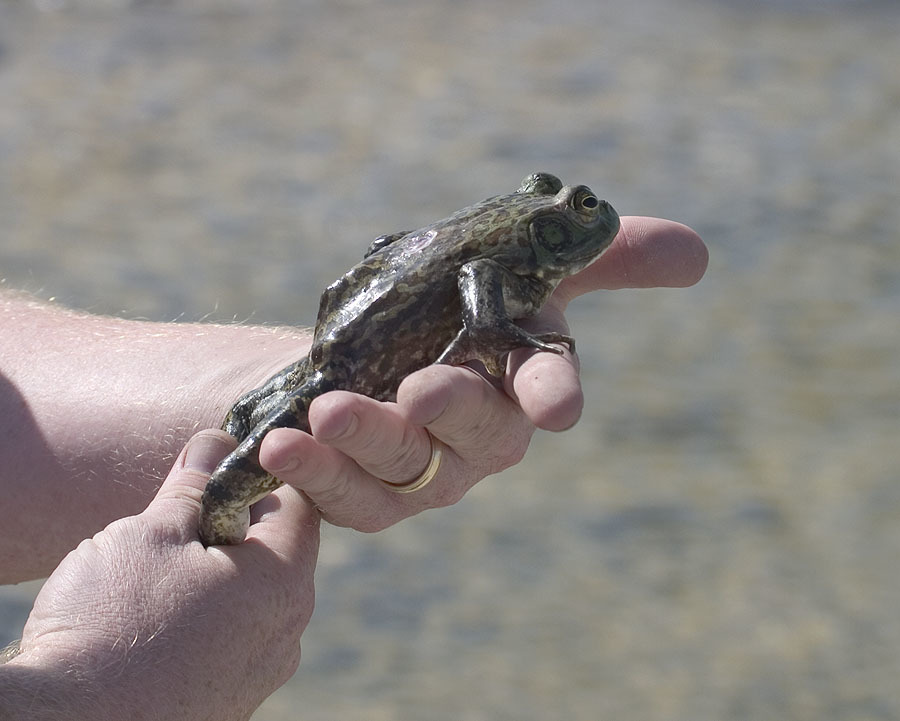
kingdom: Animalia
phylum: Chordata
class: Amphibia
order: Anura
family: Ranidae
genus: Lithobates
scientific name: Lithobates catesbeianus
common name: American bullfrog
